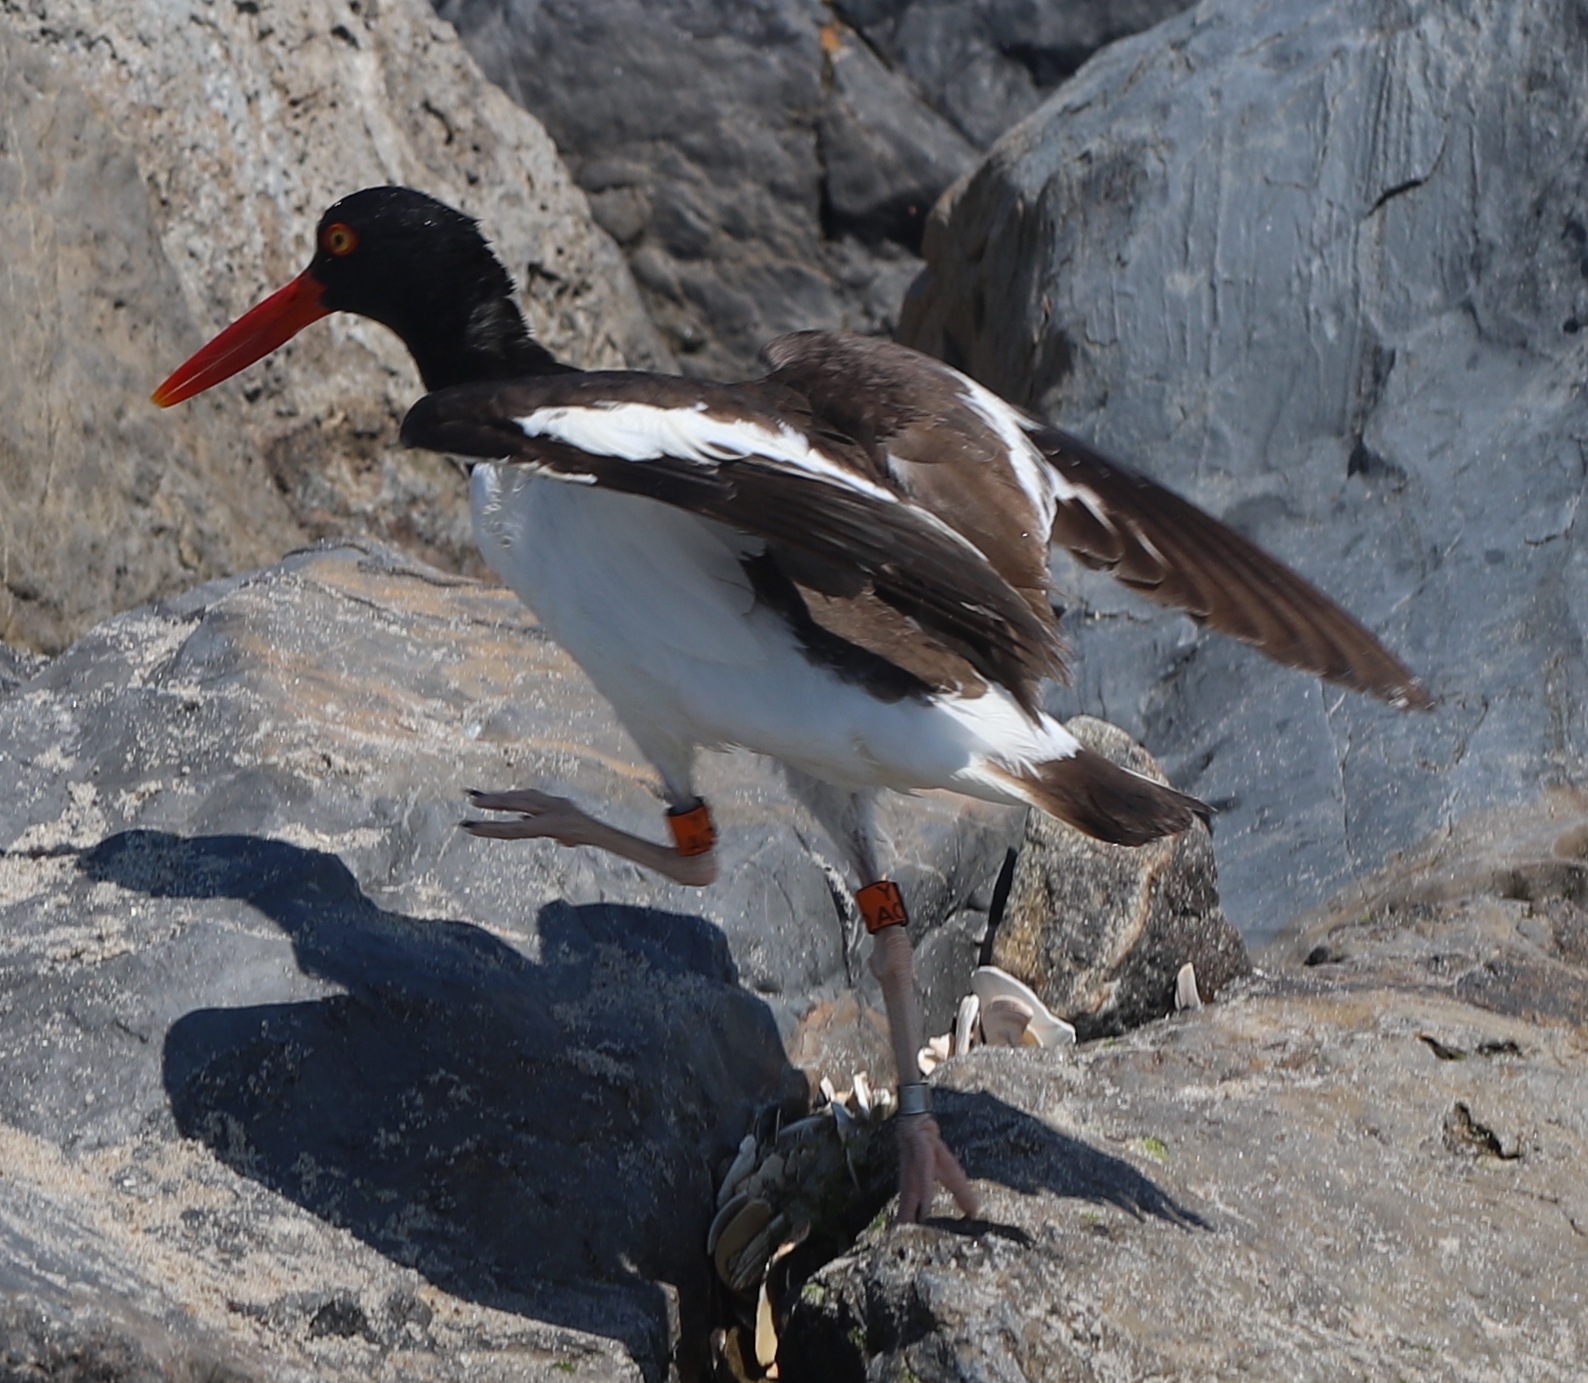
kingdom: Animalia
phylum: Chordata
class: Aves
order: Charadriiformes
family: Haematopodidae
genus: Haematopus
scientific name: Haematopus palliatus
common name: American oystercatcher
